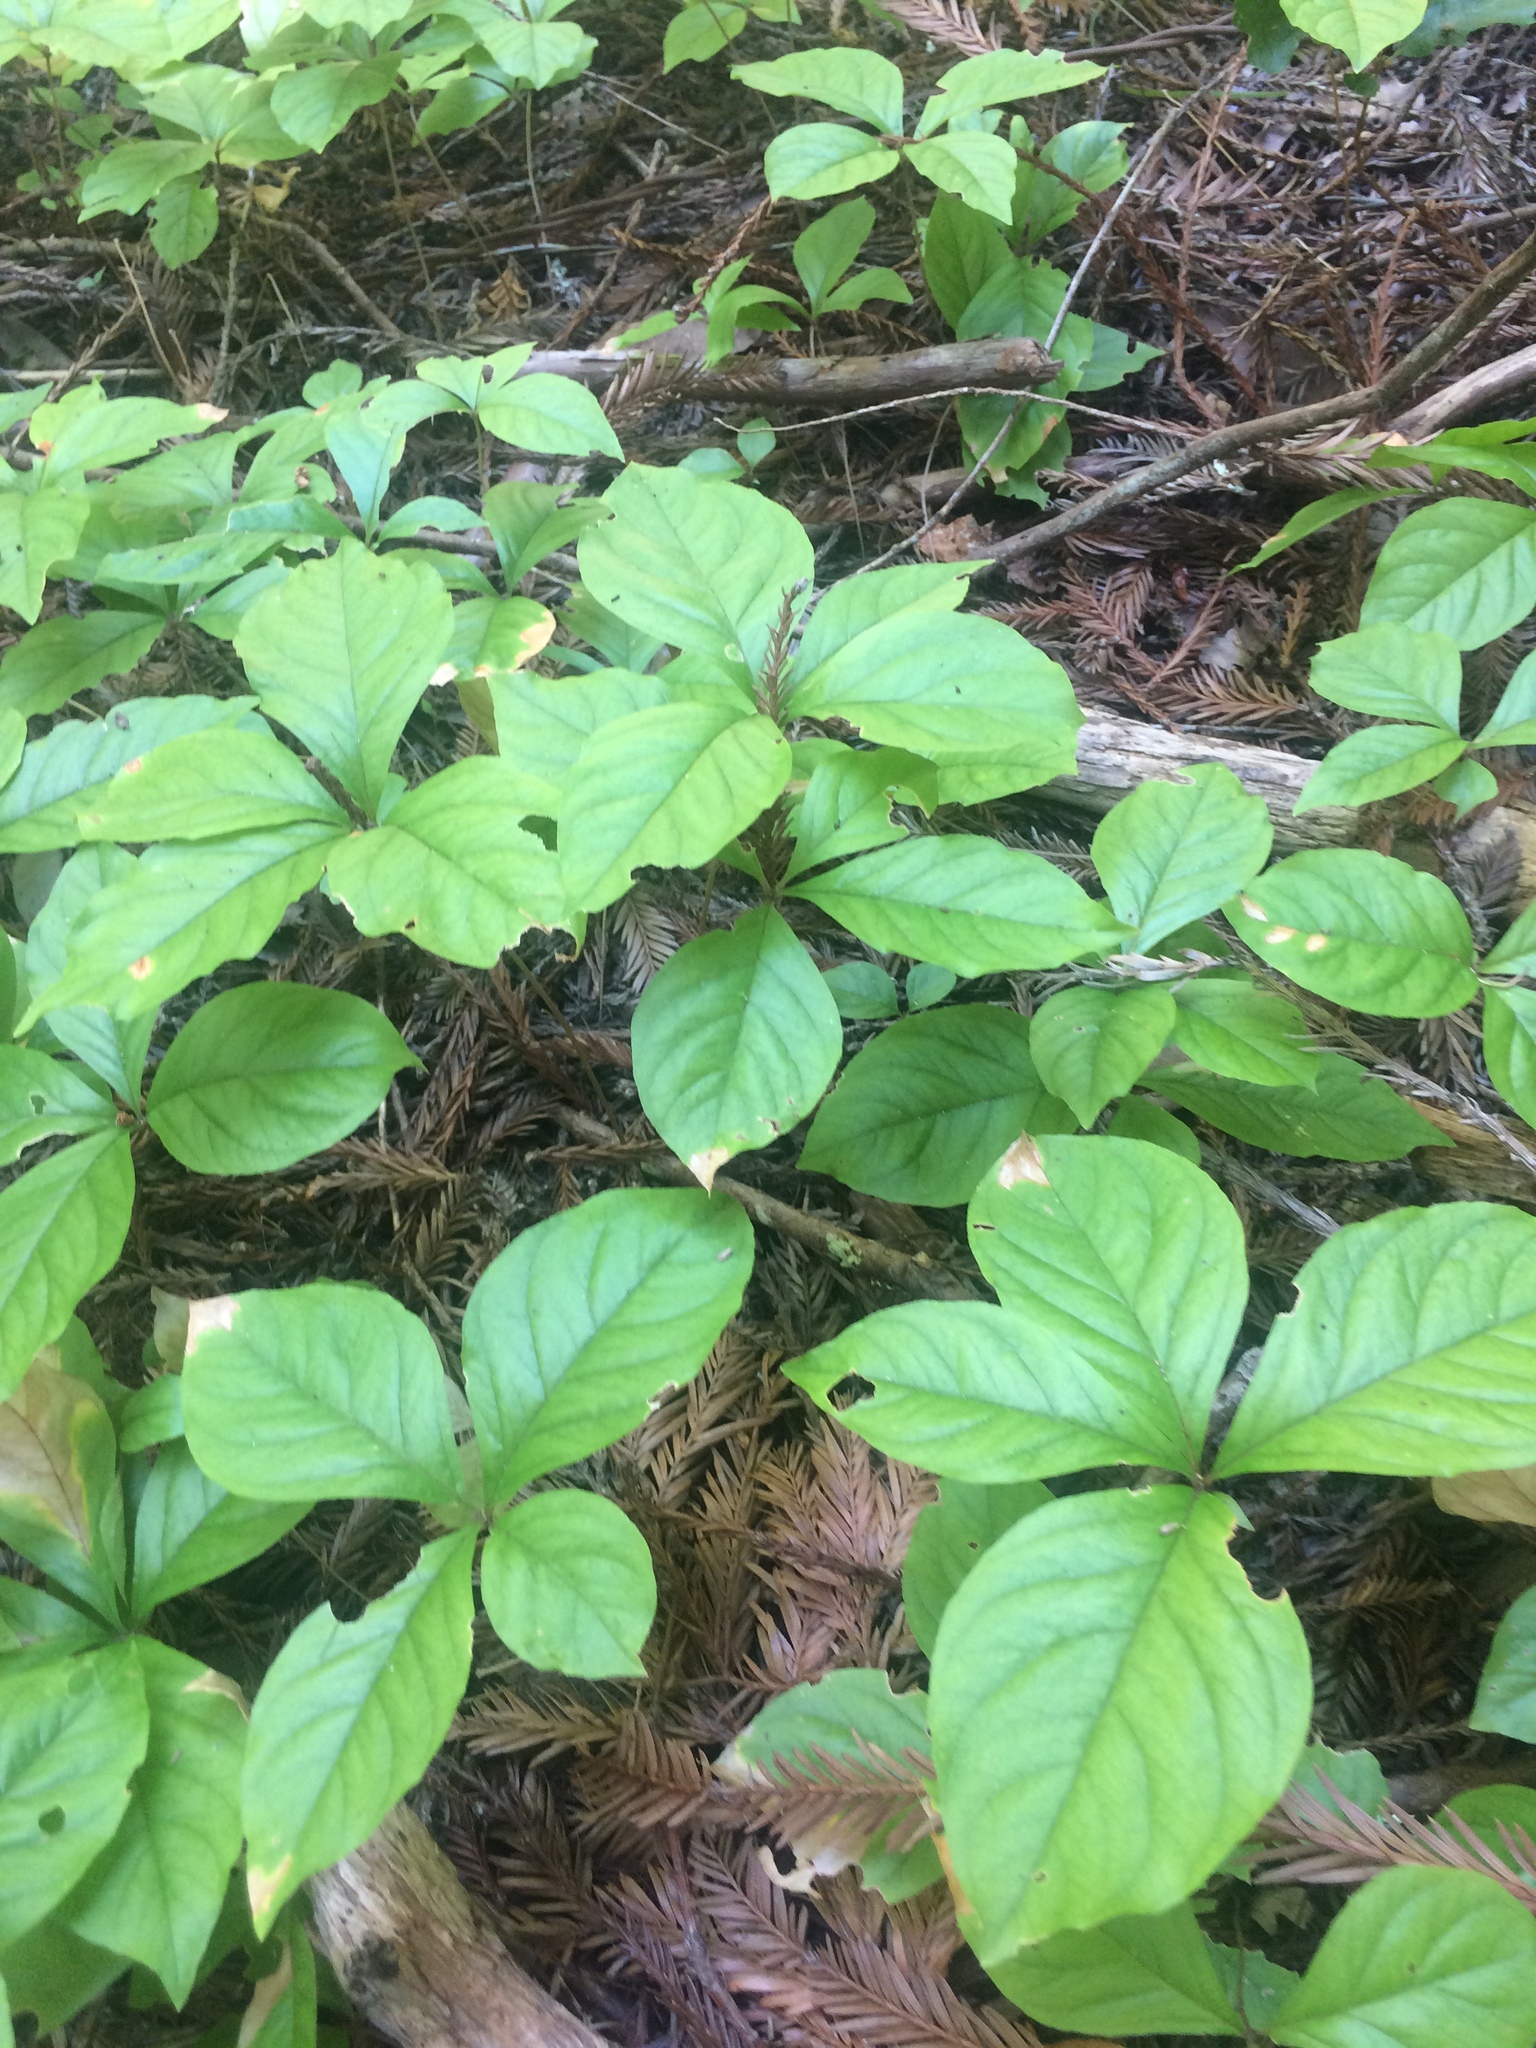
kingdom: Plantae
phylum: Tracheophyta
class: Magnoliopsida
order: Ericales
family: Primulaceae
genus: Lysimachia
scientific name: Lysimachia latifolia
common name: Pacific starflower
